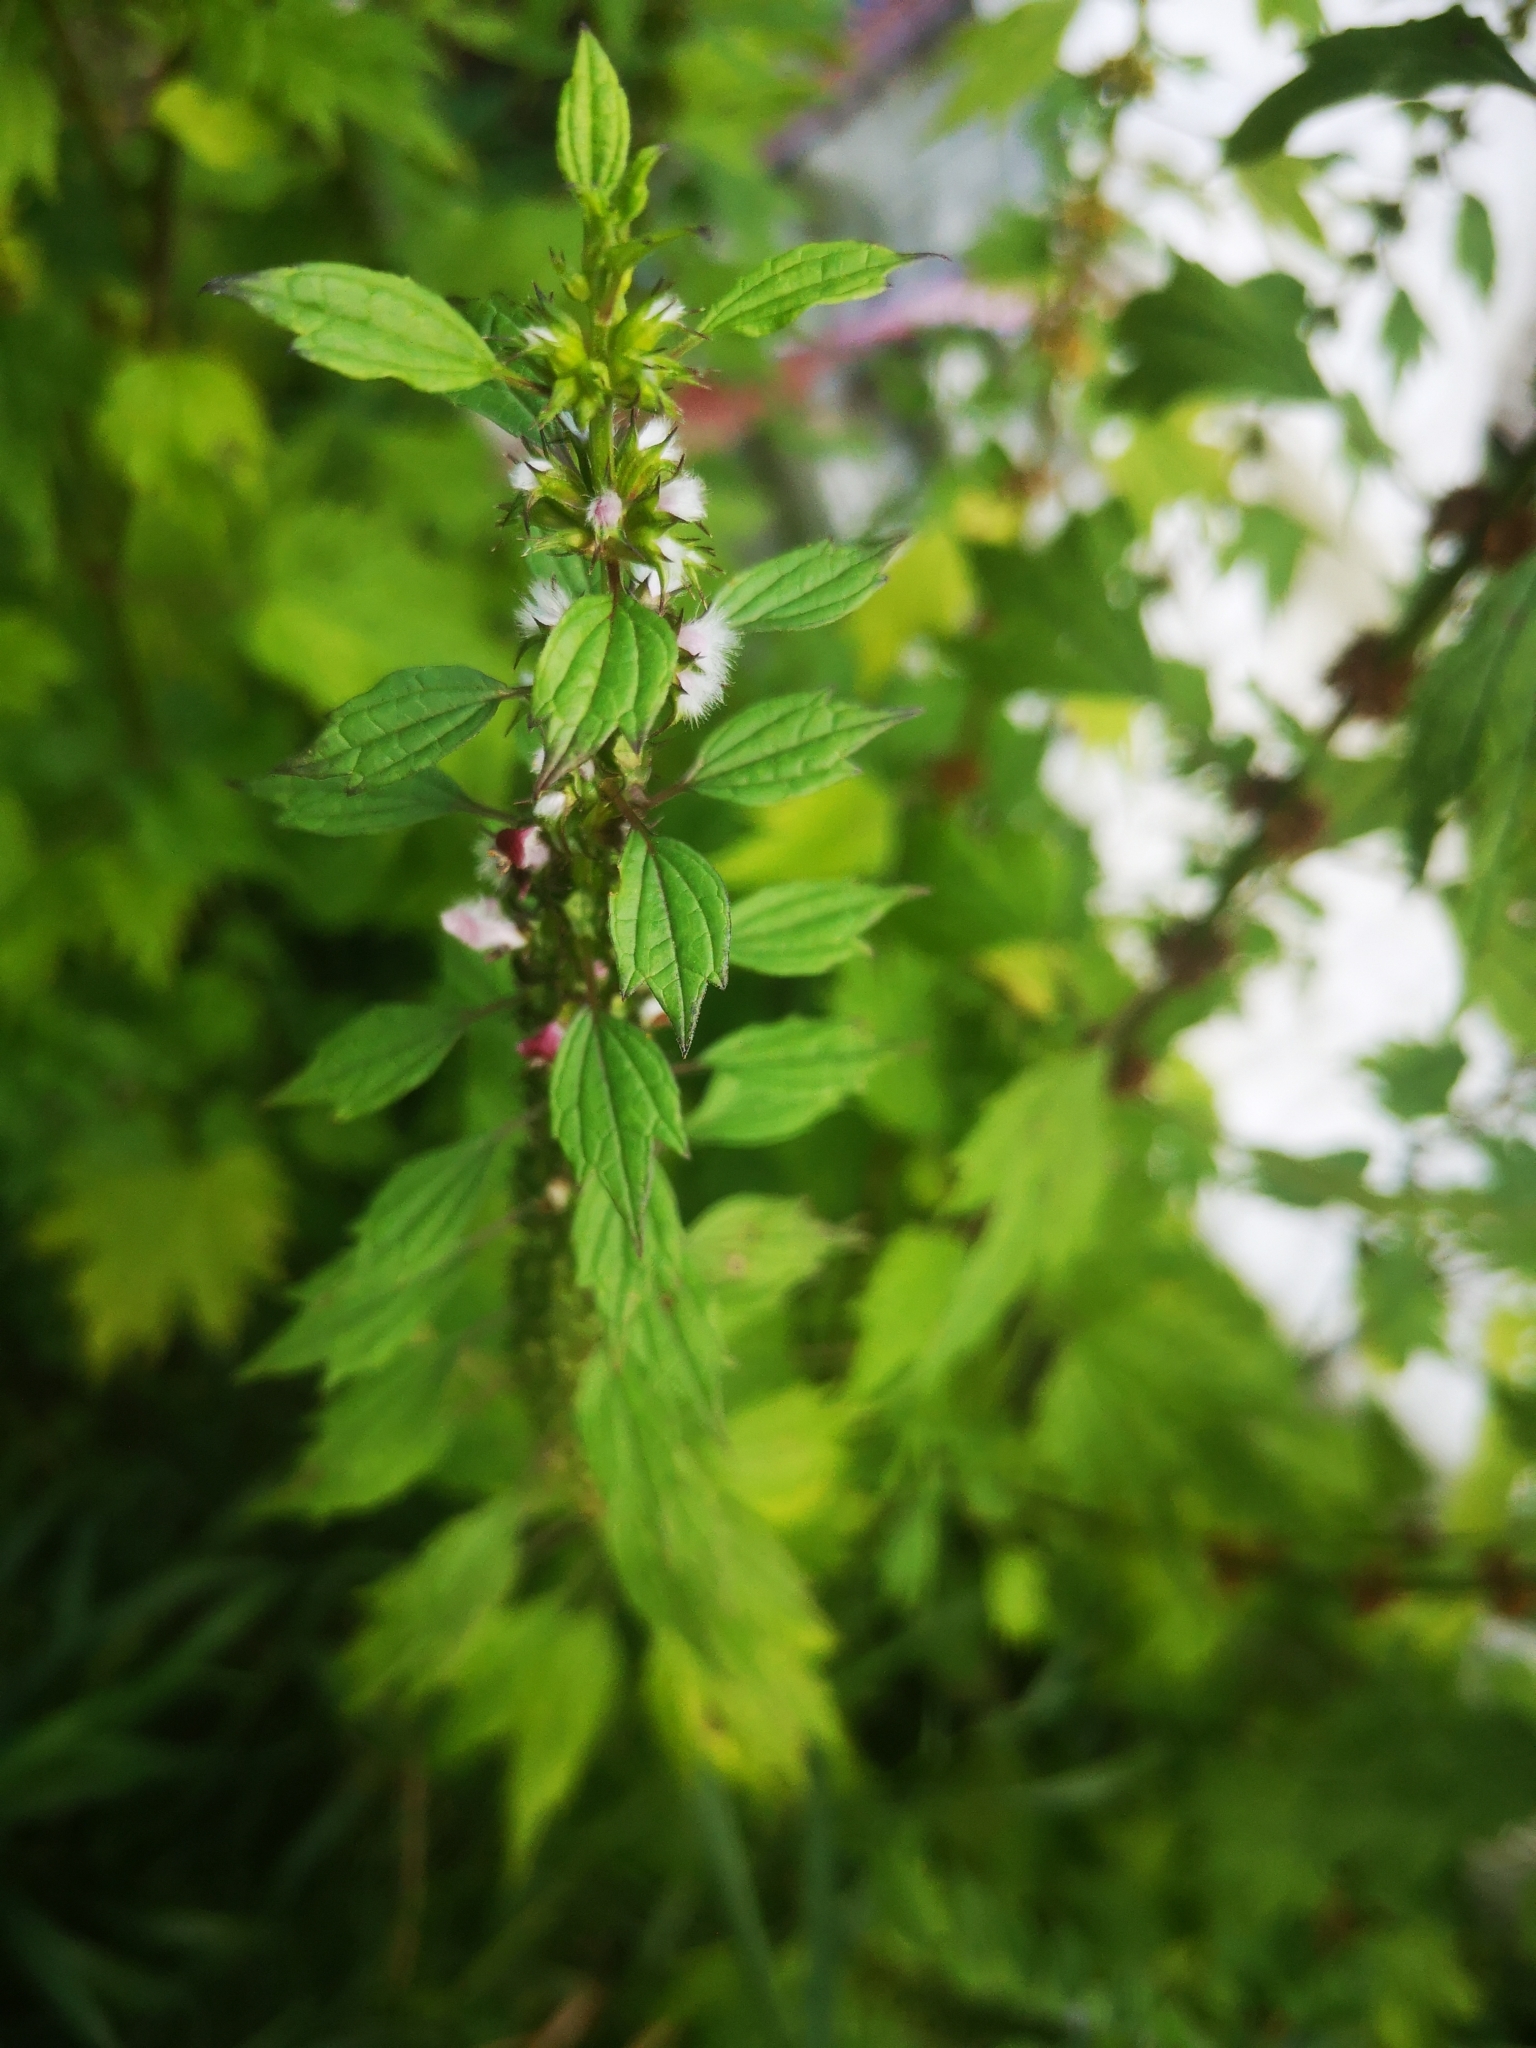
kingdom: Plantae
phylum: Tracheophyta
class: Magnoliopsida
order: Lamiales
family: Lamiaceae
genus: Leonurus
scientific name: Leonurus cardiaca
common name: Motherwort
